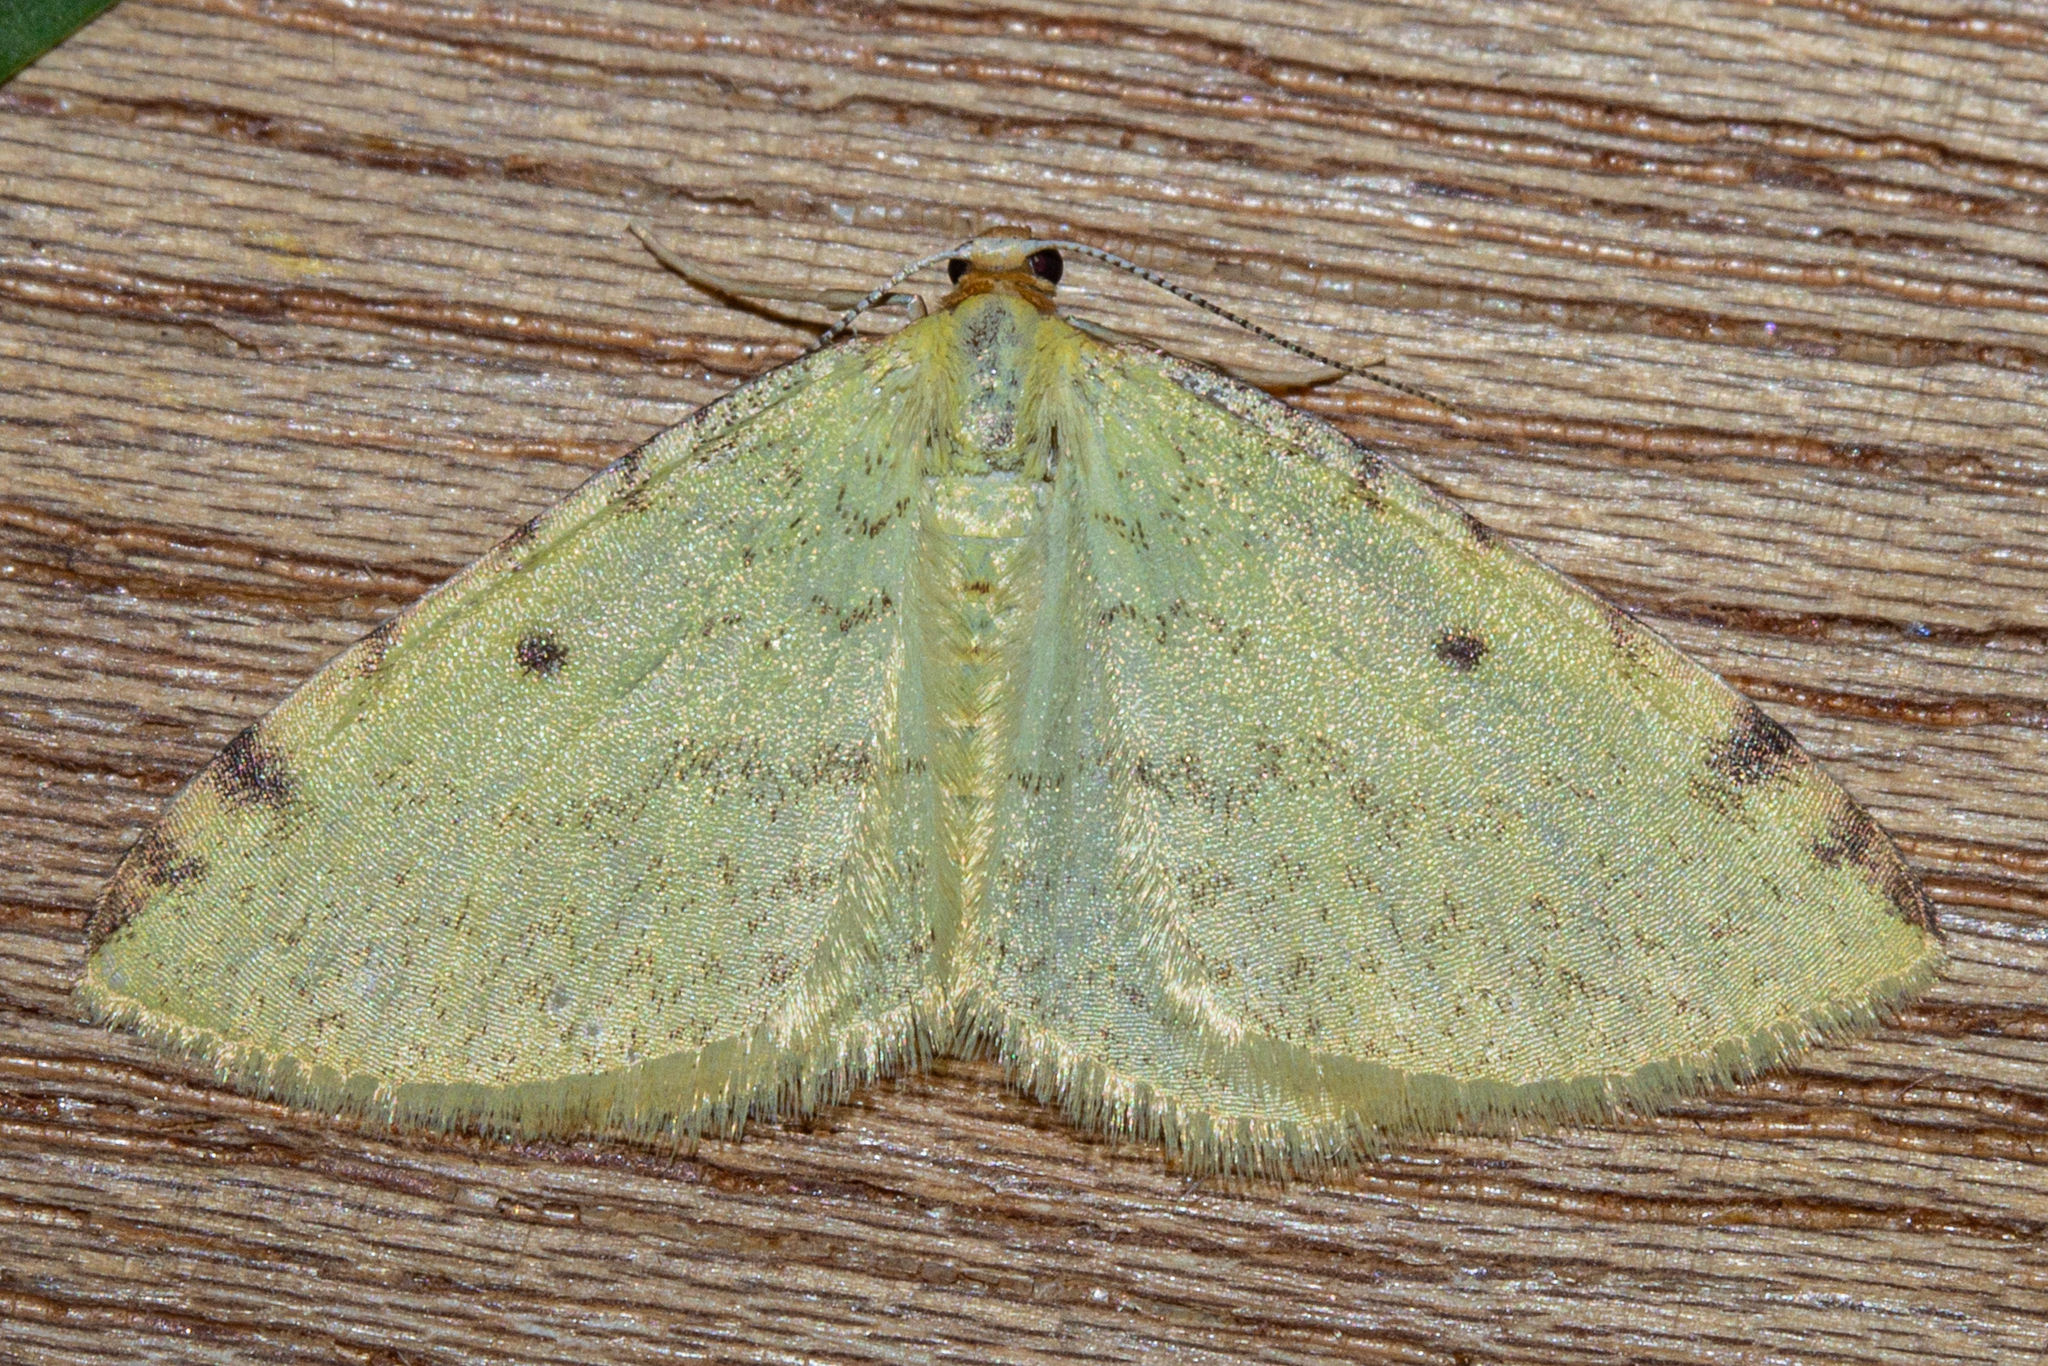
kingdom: Animalia
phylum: Arthropoda
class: Insecta
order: Lepidoptera
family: Geometridae
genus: Epiphryne
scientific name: Epiphryne undosata
